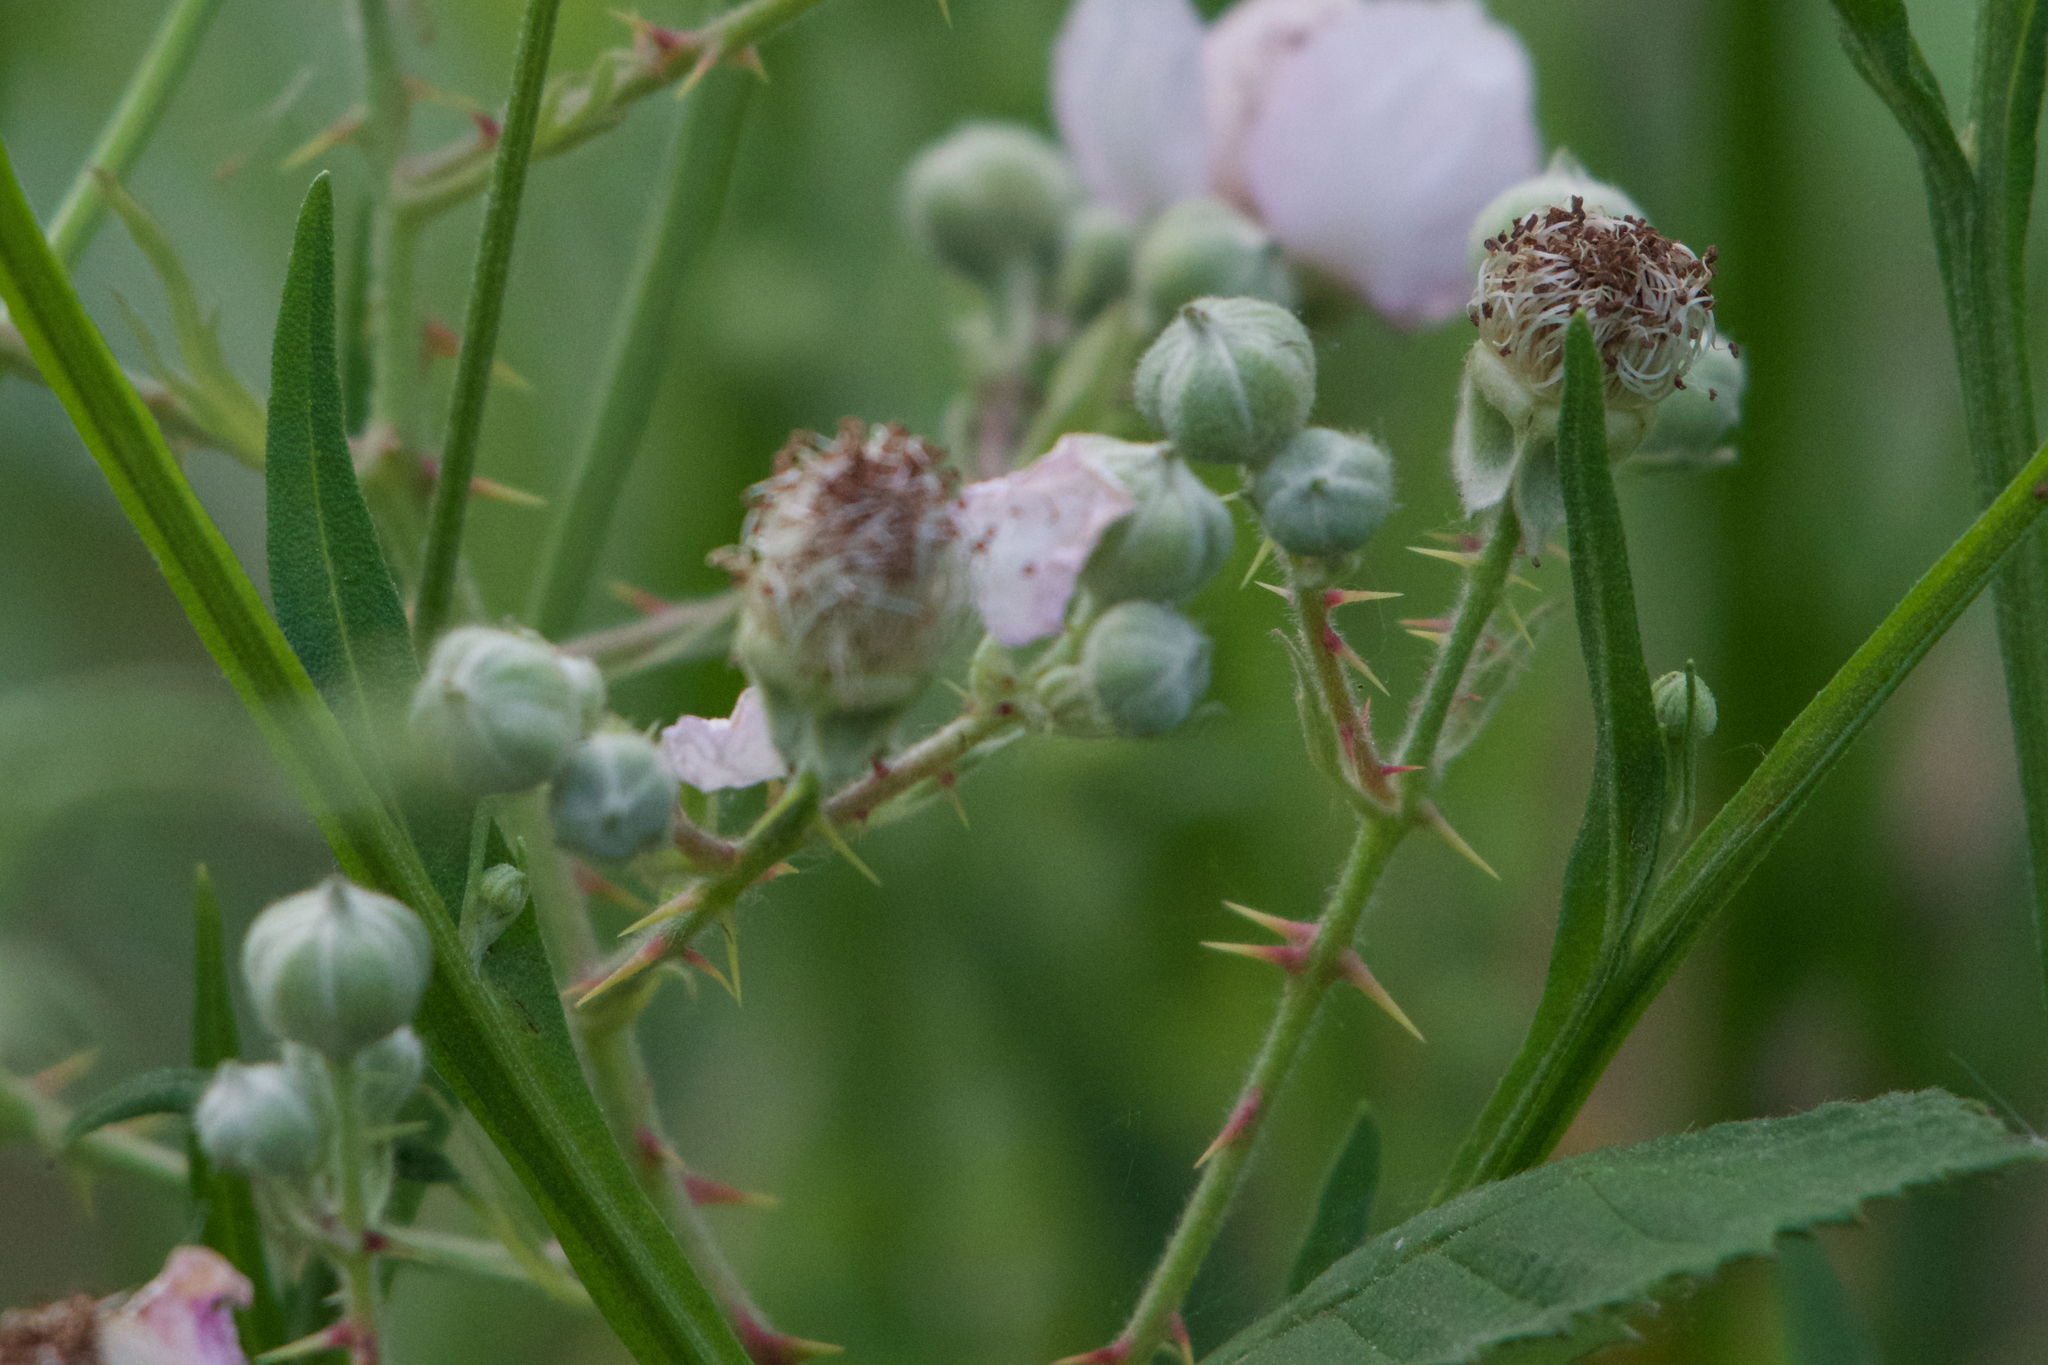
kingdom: Plantae
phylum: Tracheophyta
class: Magnoliopsida
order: Rosales
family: Rosaceae
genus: Rubus
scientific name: Rubus armeniacus
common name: Himalayan blackberry
